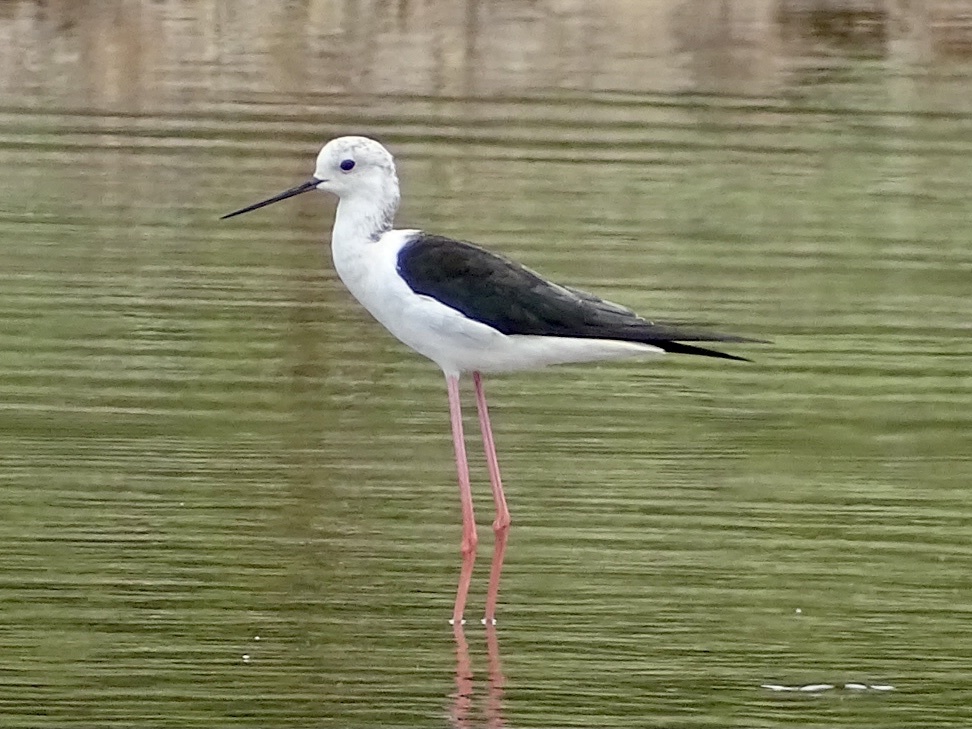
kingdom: Animalia
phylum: Chordata
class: Aves
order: Charadriiformes
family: Recurvirostridae
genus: Himantopus
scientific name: Himantopus himantopus
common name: Black-winged stilt
